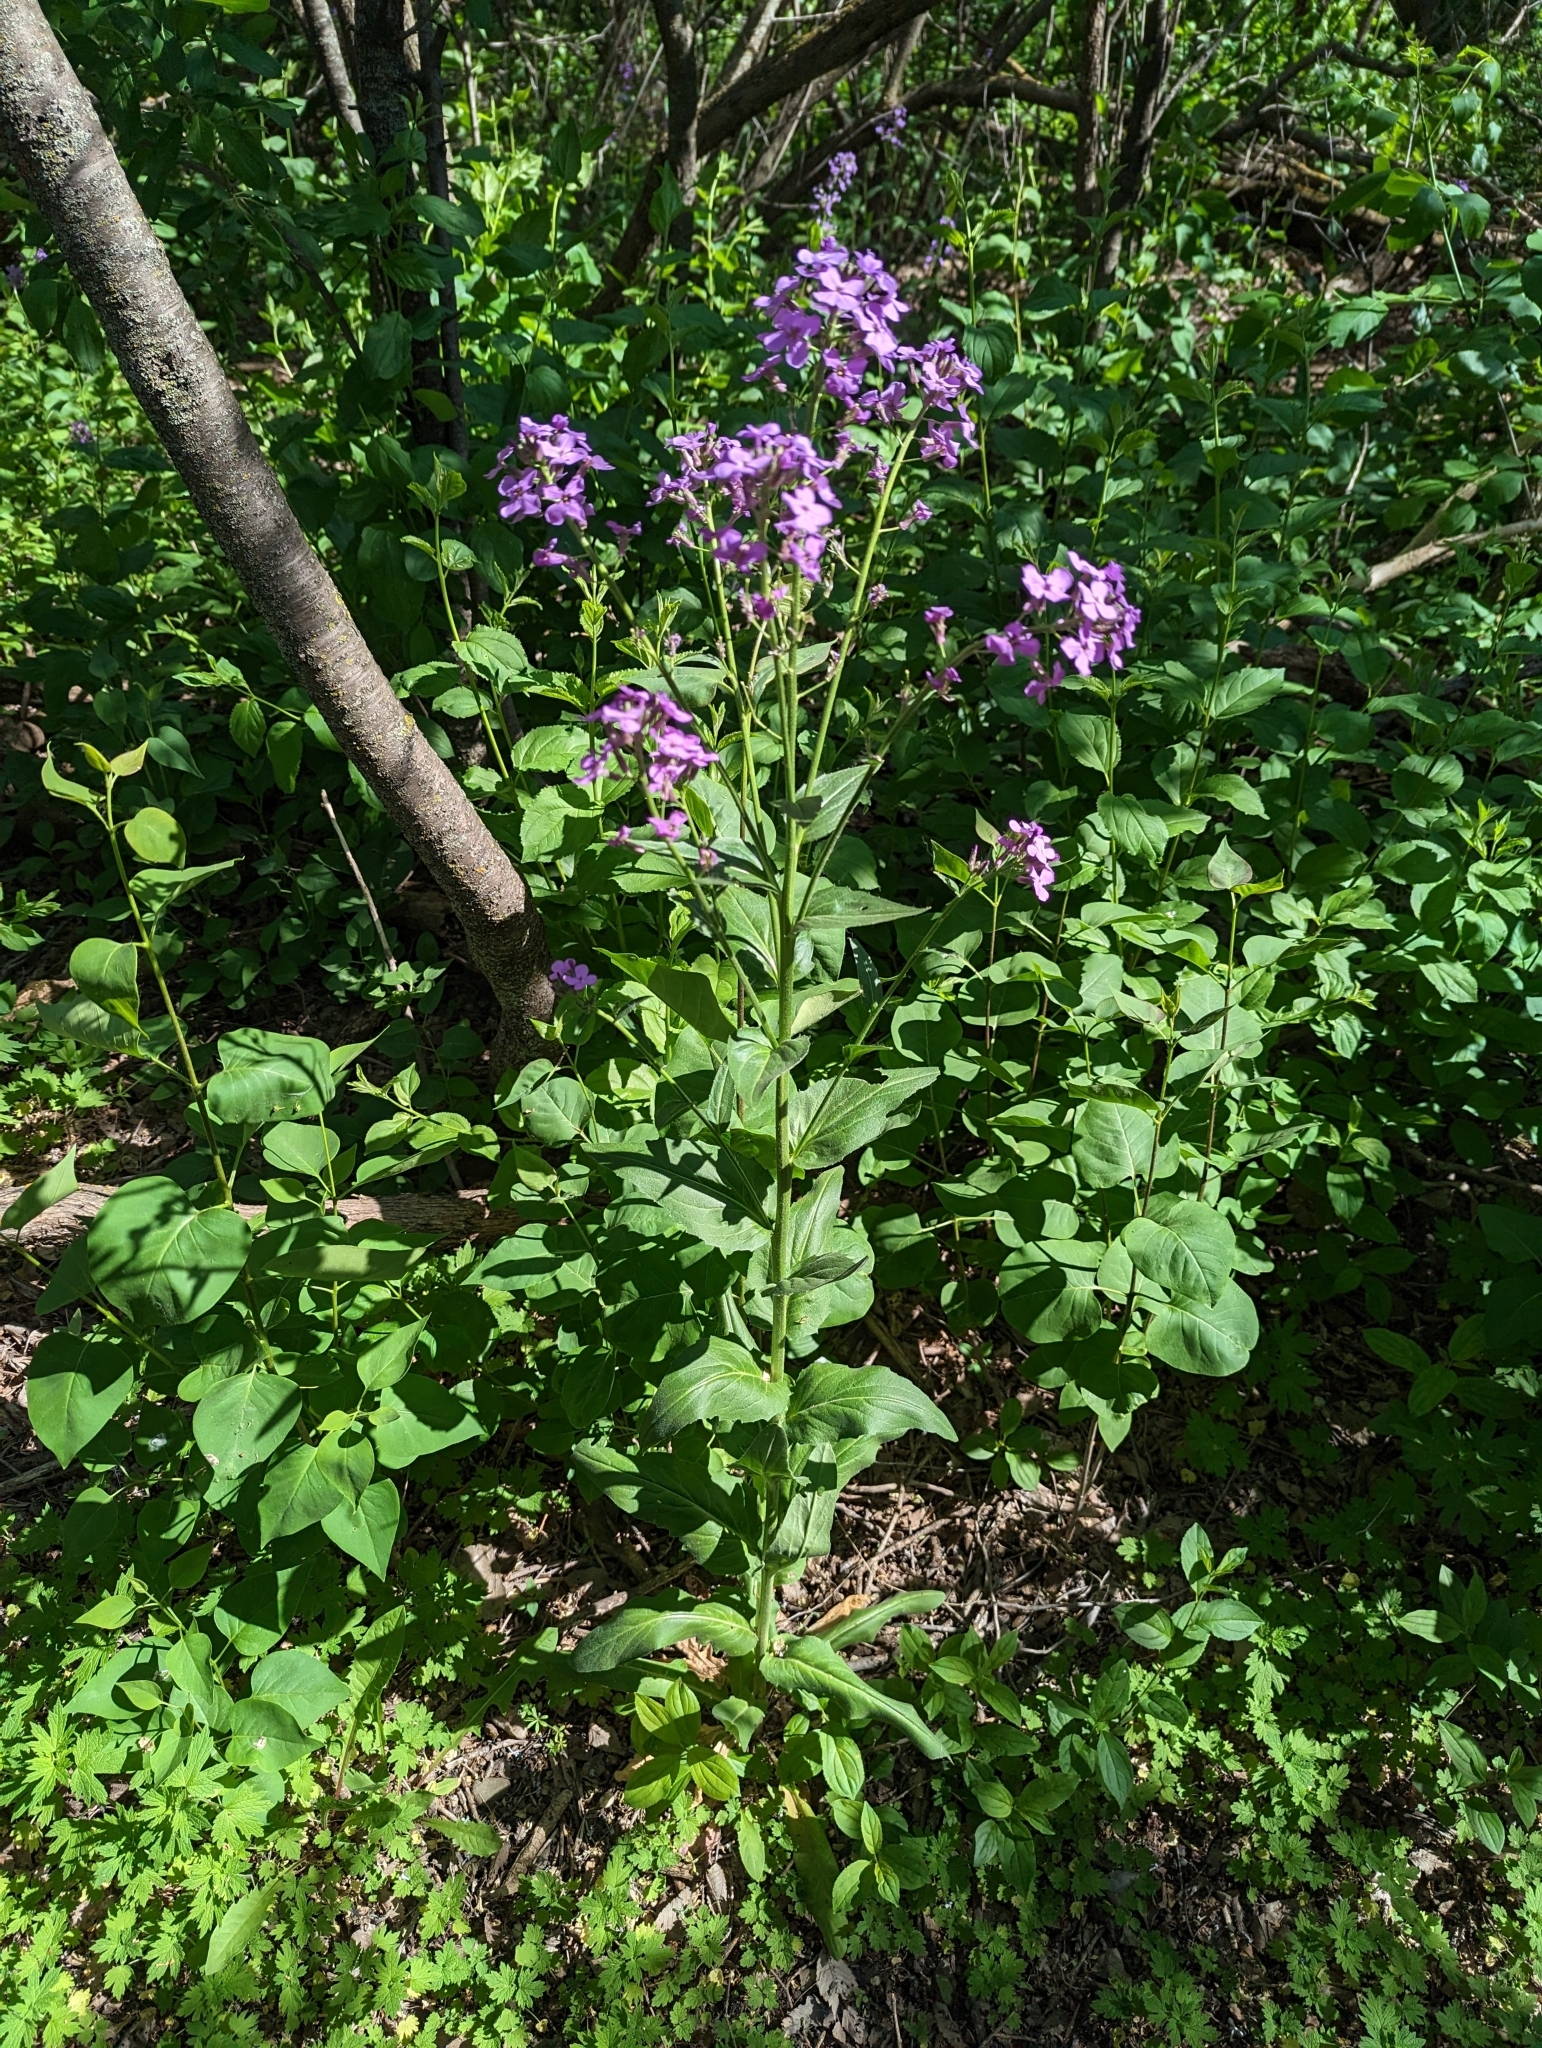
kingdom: Plantae
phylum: Tracheophyta
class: Magnoliopsida
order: Brassicales
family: Brassicaceae
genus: Hesperis
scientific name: Hesperis matronalis
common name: Dame's-violet
